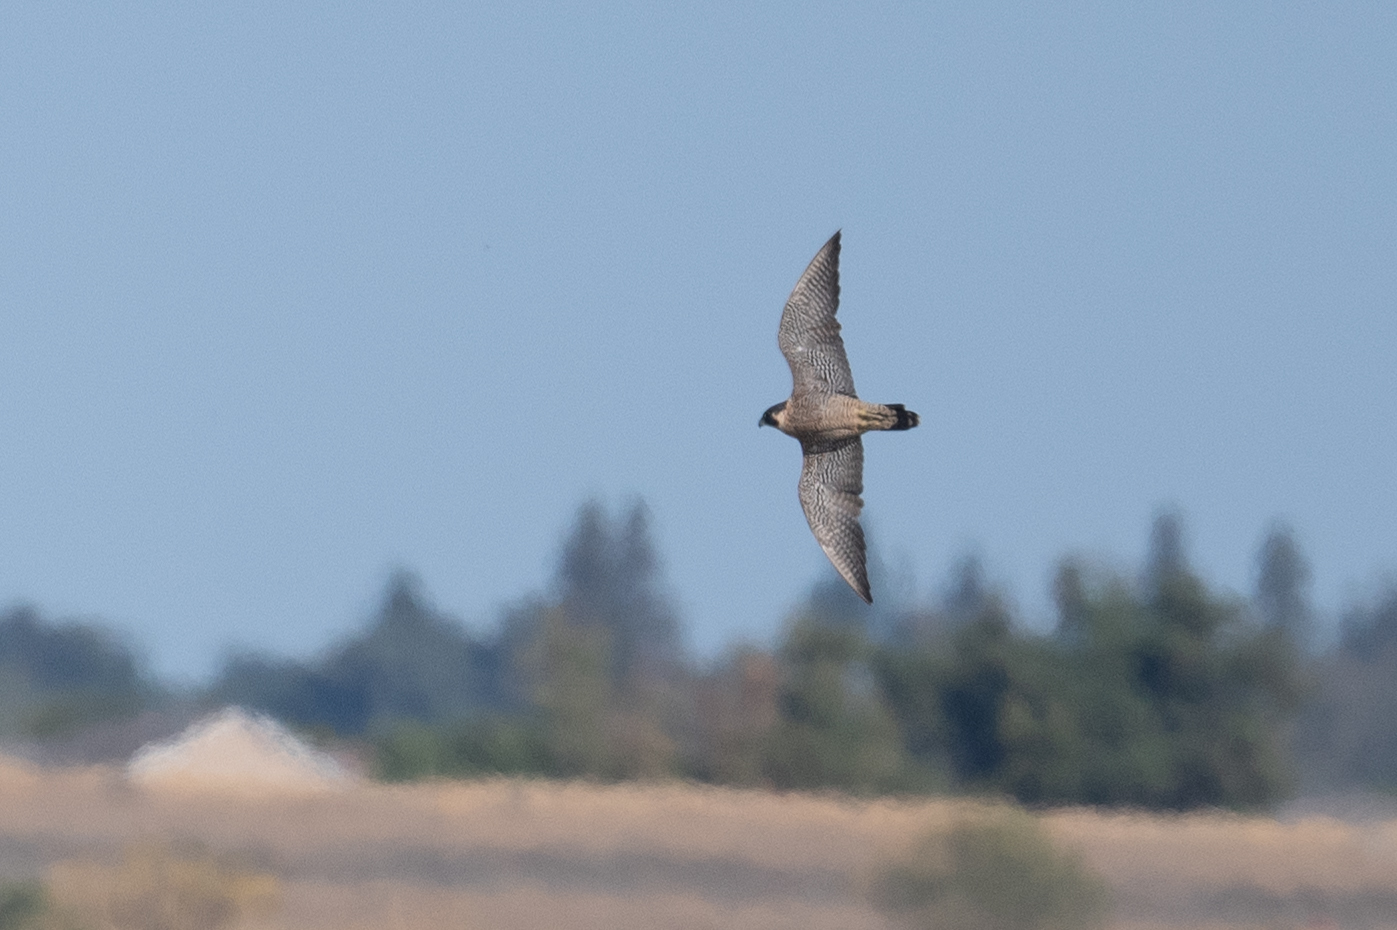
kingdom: Animalia
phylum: Chordata
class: Aves
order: Falconiformes
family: Falconidae
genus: Falco
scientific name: Falco peregrinus
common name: Peregrine falcon
